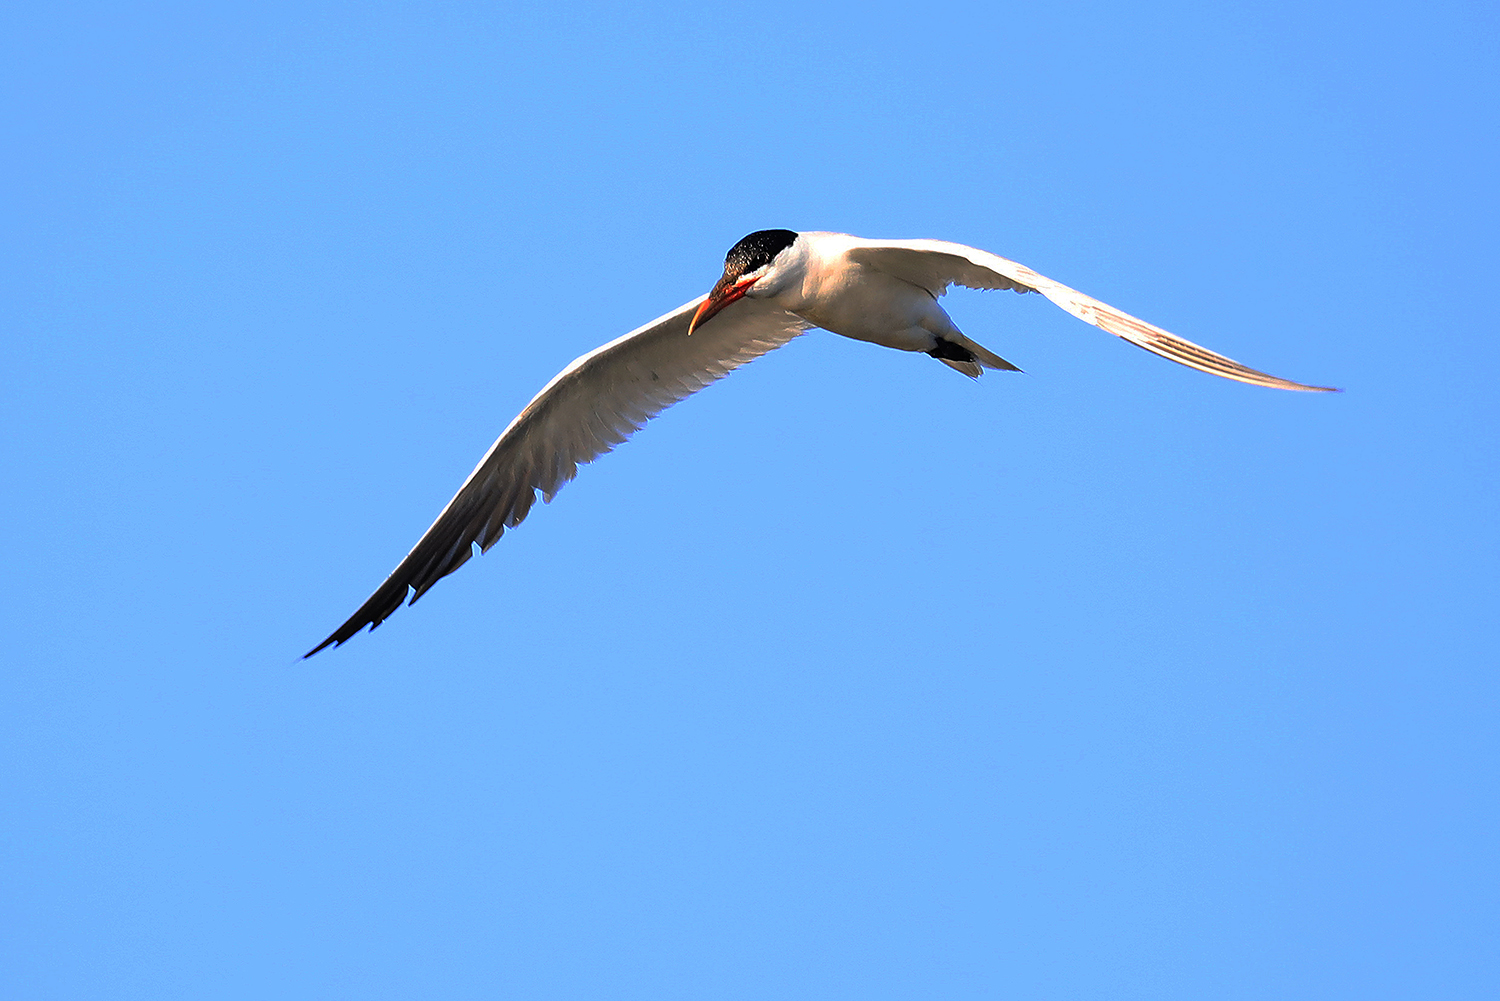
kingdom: Animalia
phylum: Chordata
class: Aves
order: Charadriiformes
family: Laridae
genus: Hydroprogne
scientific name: Hydroprogne caspia
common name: Caspian tern
